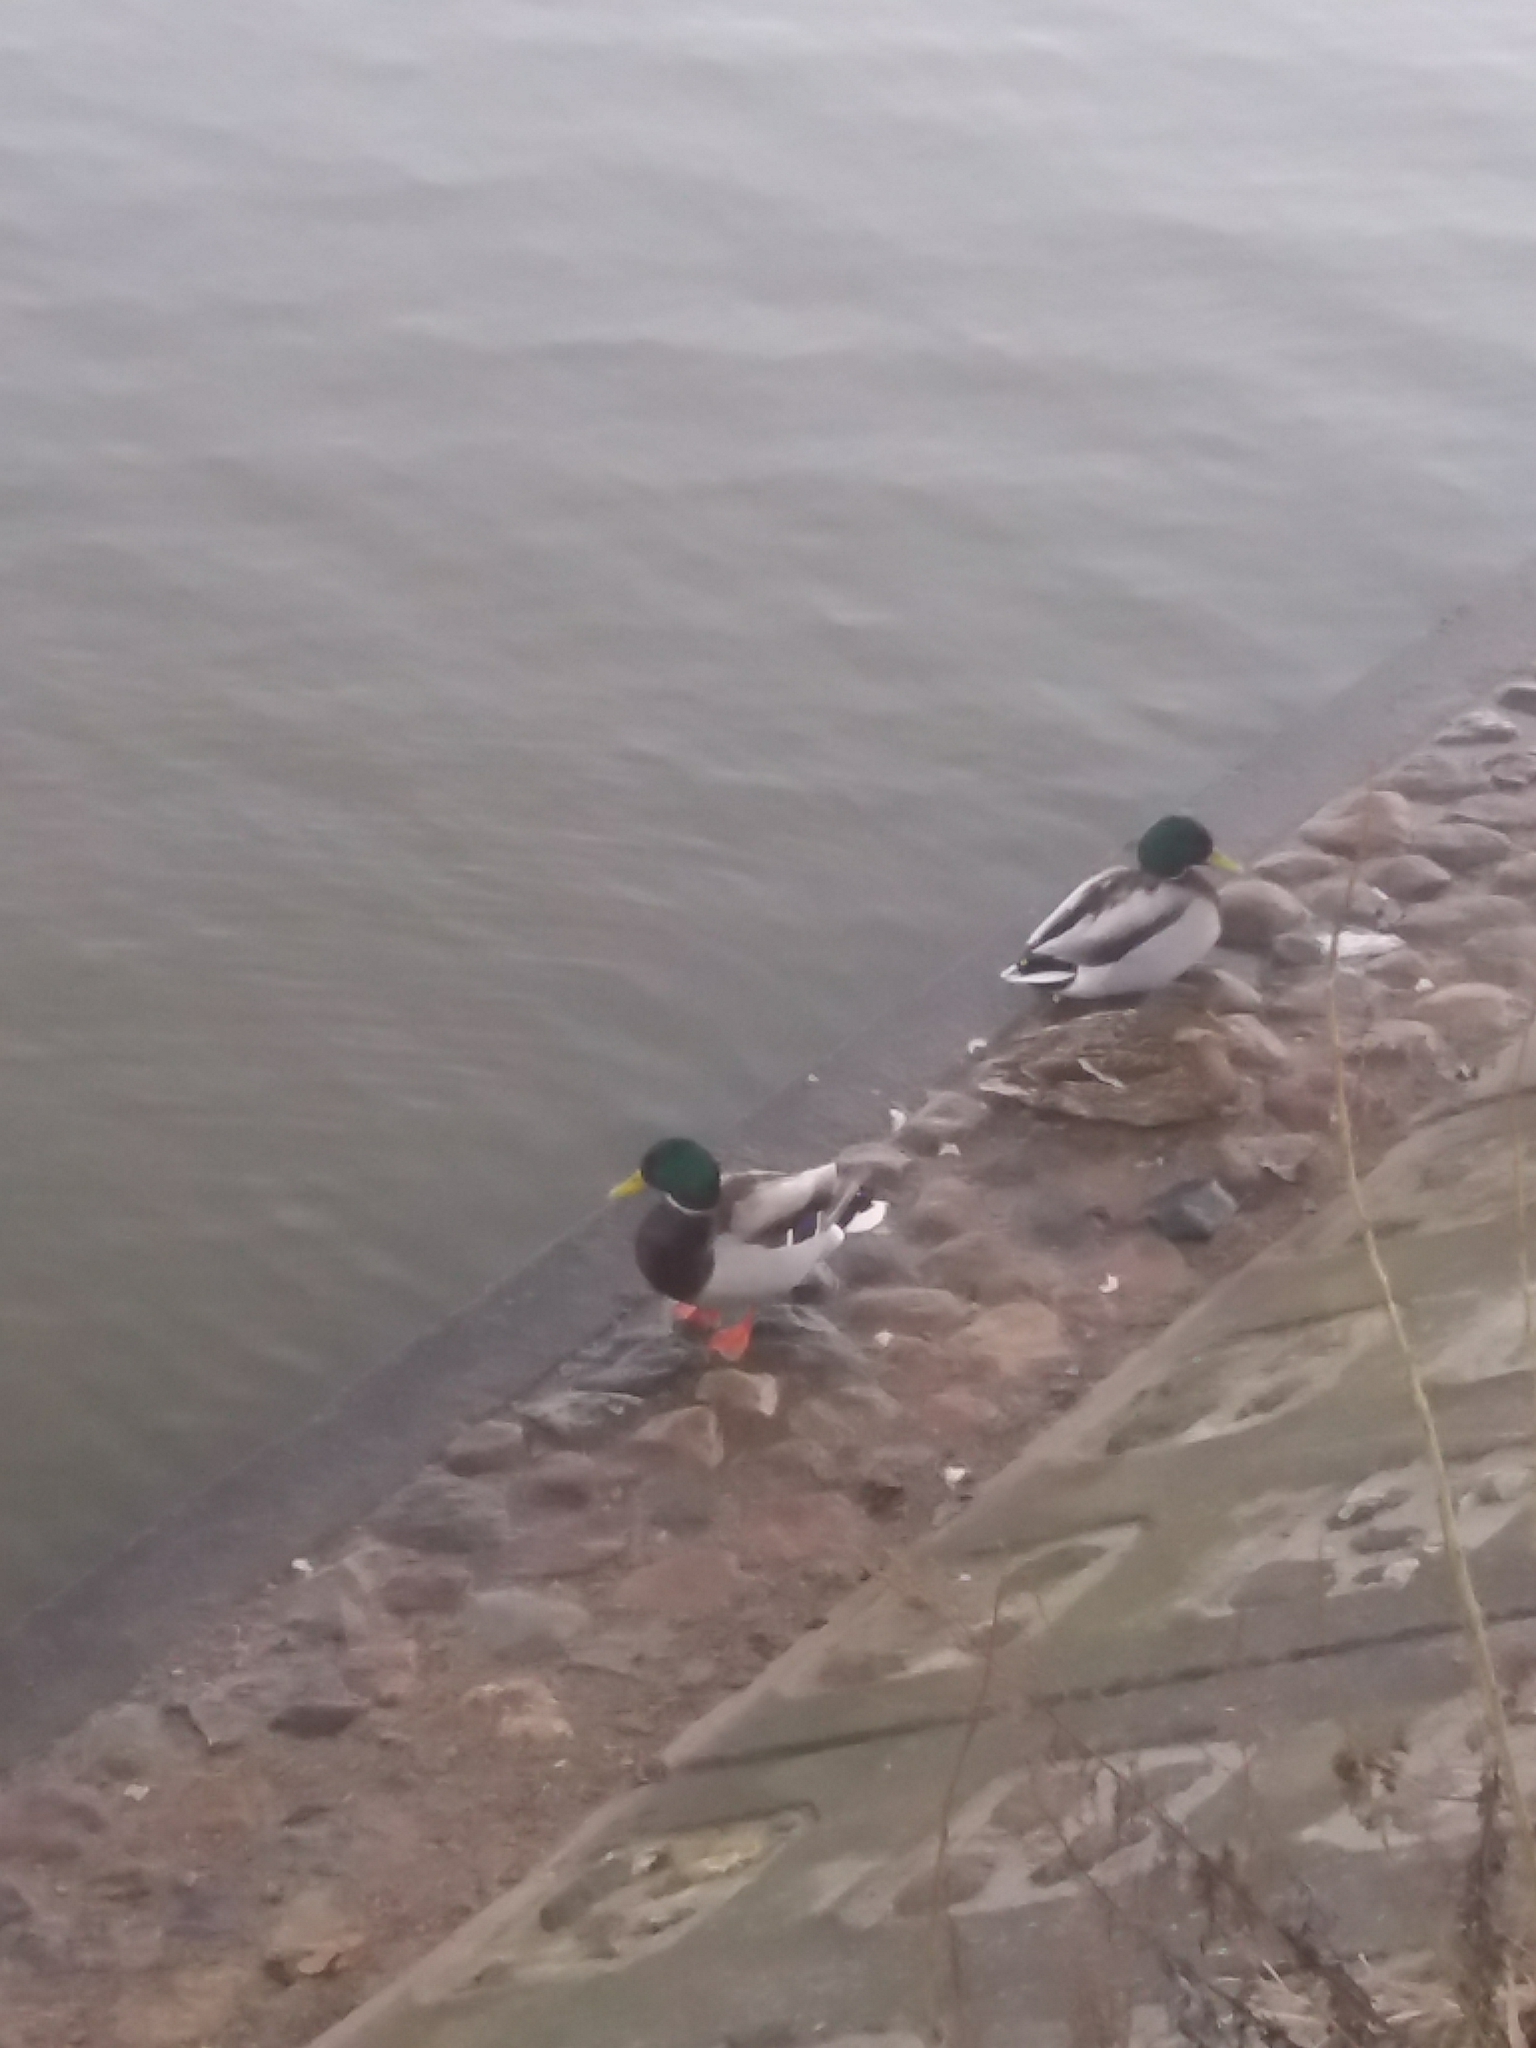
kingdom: Animalia
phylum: Chordata
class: Aves
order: Anseriformes
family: Anatidae
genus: Anas
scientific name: Anas platyrhynchos
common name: Mallard
